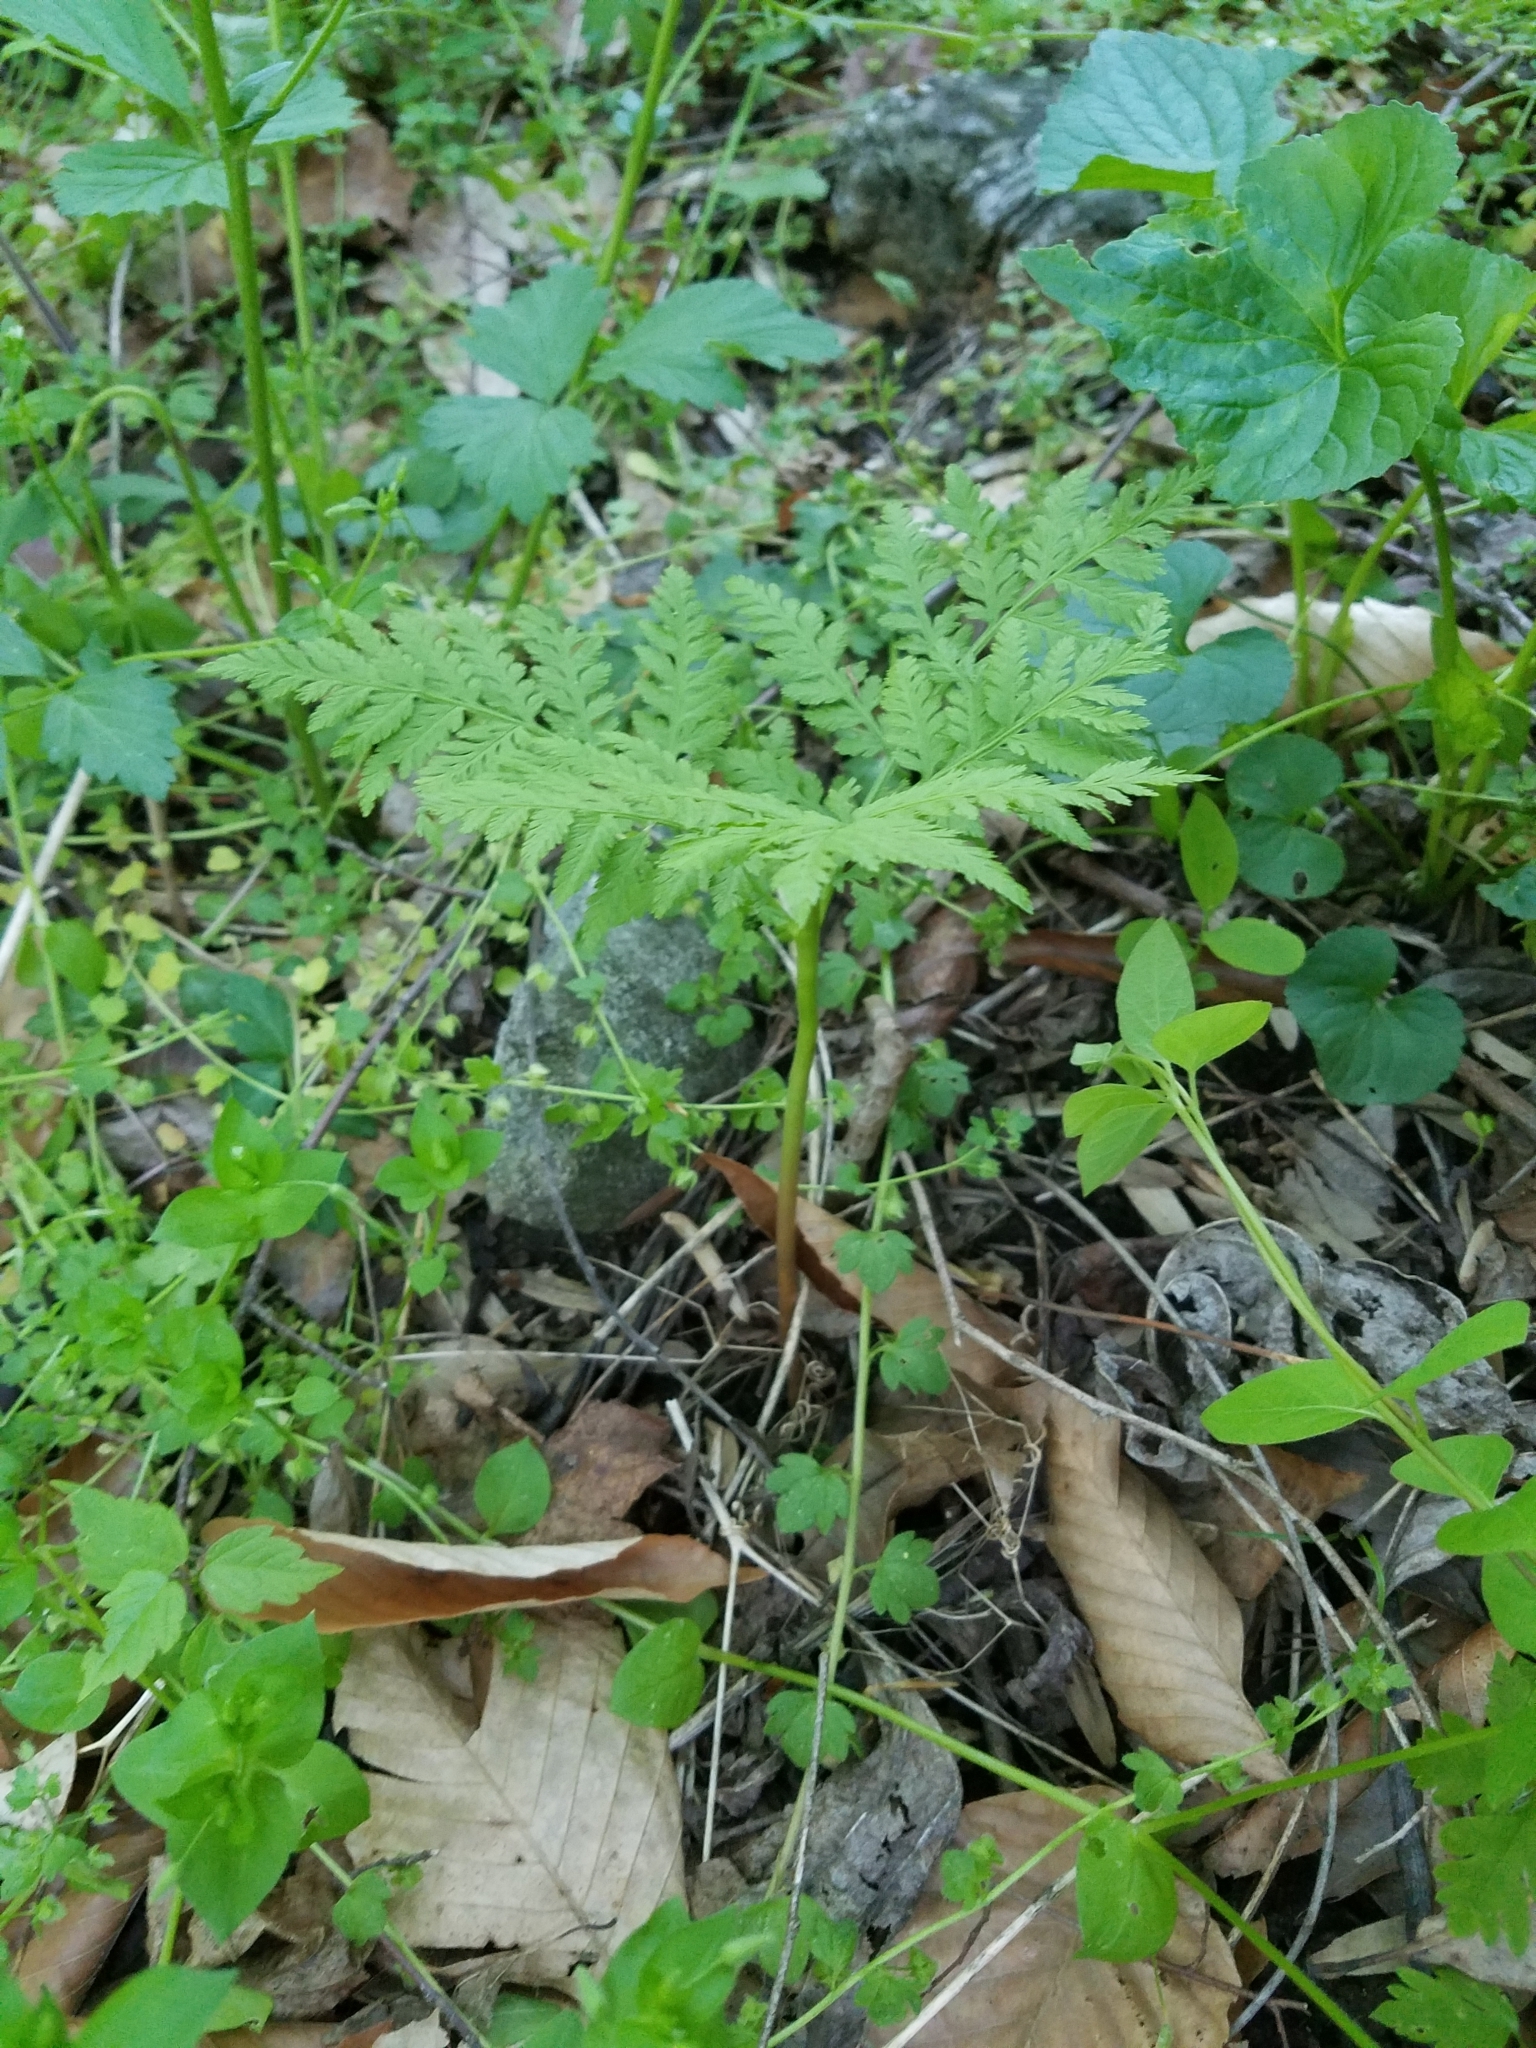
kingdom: Plantae
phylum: Tracheophyta
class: Polypodiopsida
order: Ophioglossales
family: Ophioglossaceae
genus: Botrypus
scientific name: Botrypus virginianus
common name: Common grapefern
